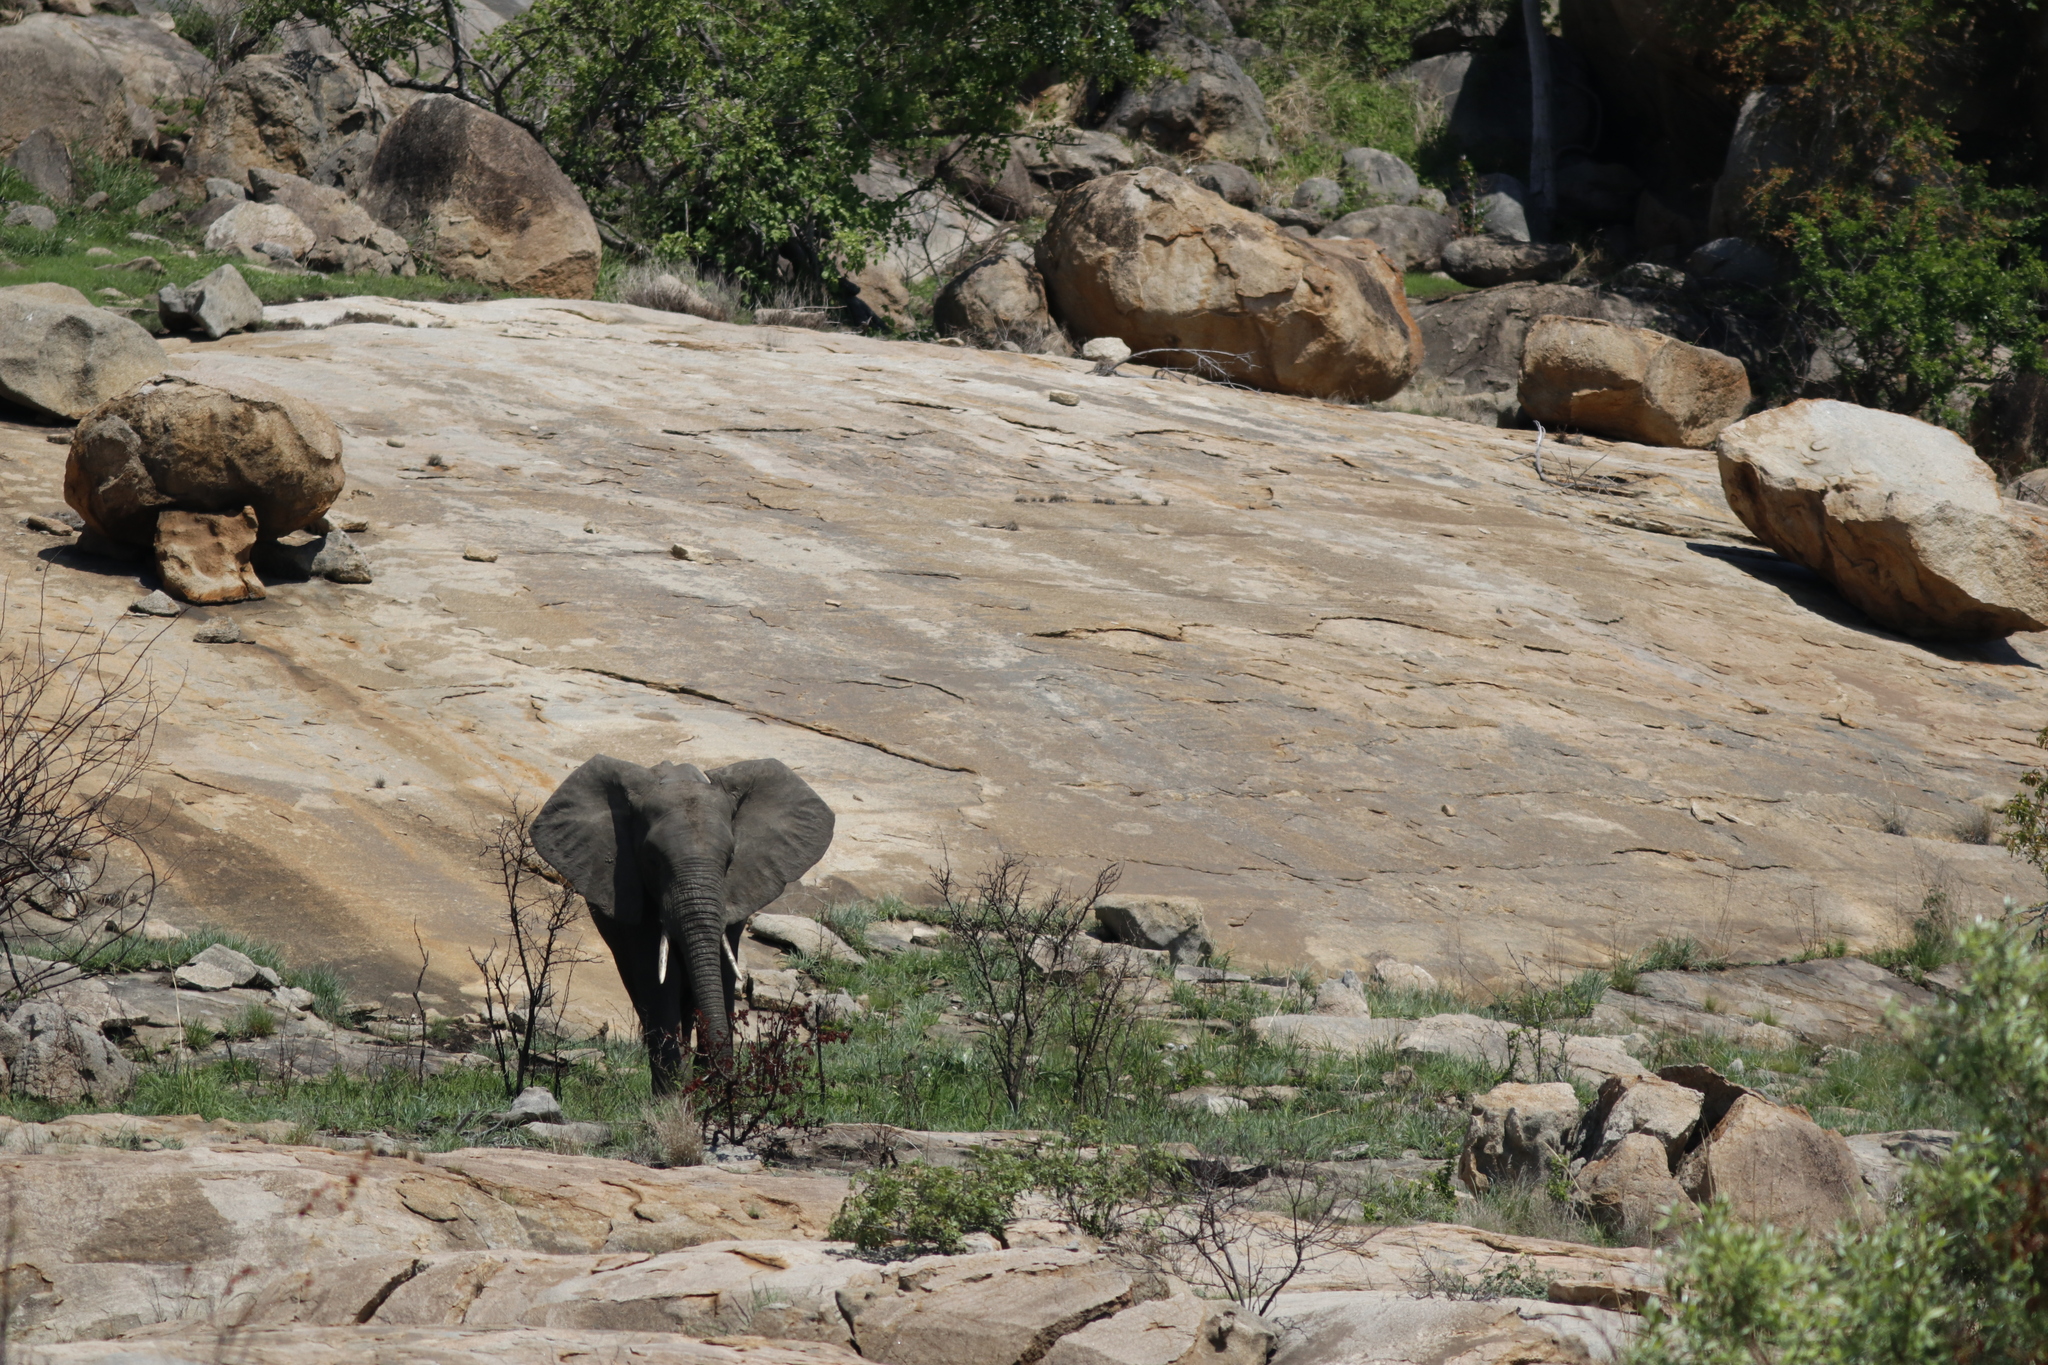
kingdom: Animalia
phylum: Chordata
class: Mammalia
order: Proboscidea
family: Elephantidae
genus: Loxodonta
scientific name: Loxodonta africana
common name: African elephant
